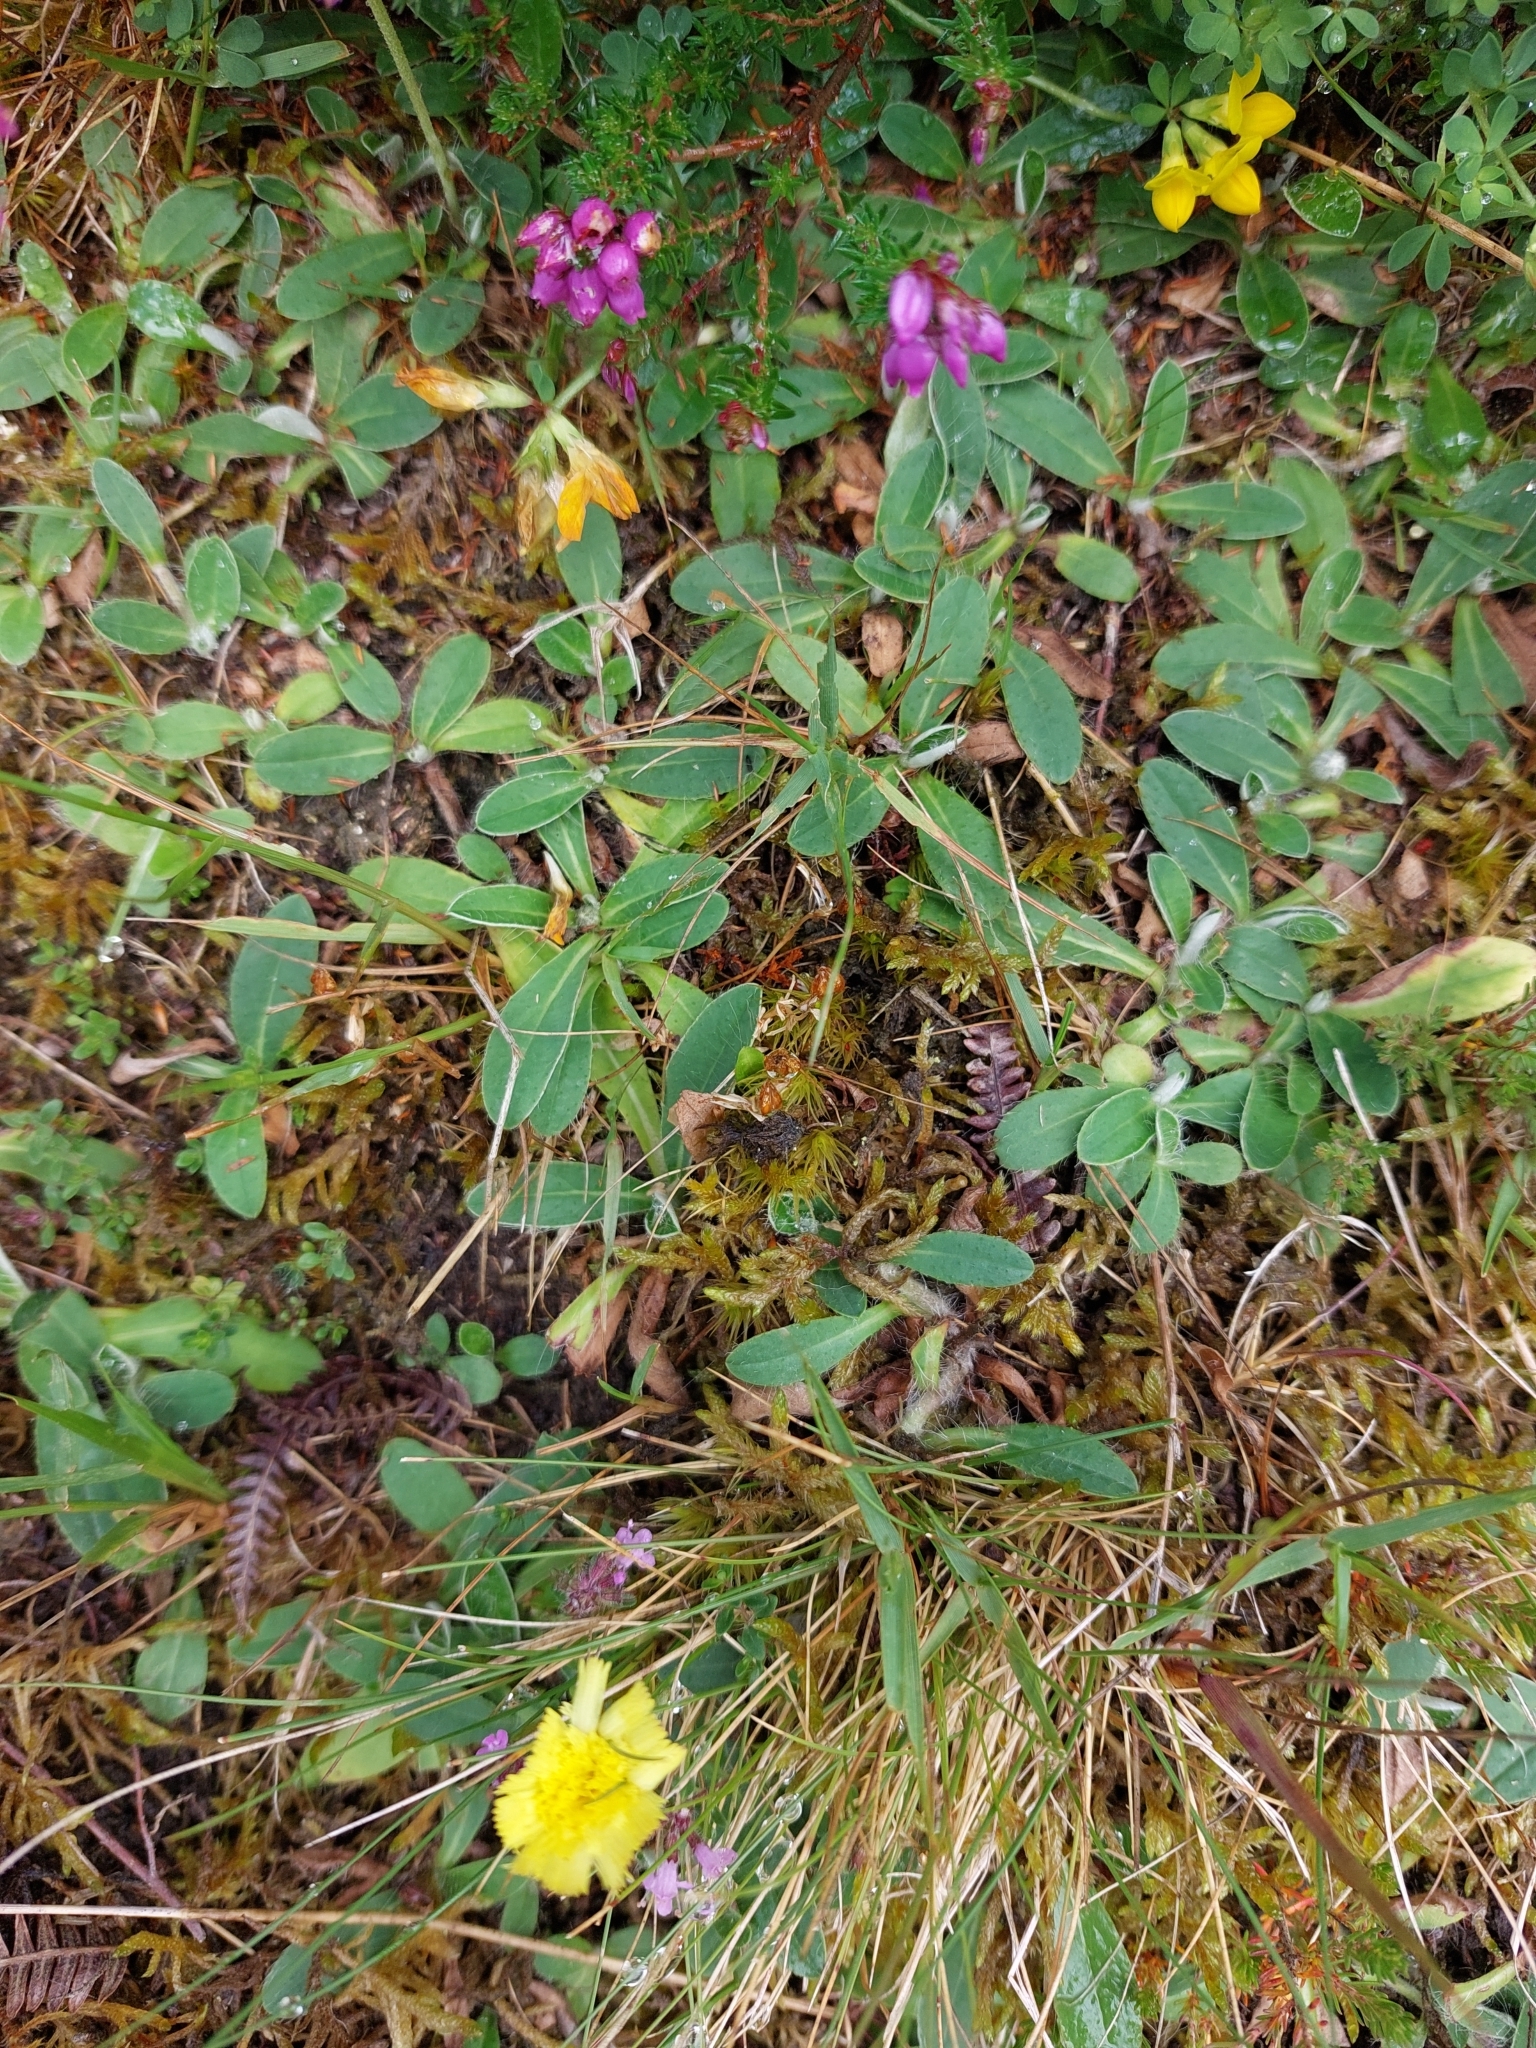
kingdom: Plantae
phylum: Tracheophyta
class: Magnoliopsida
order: Asterales
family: Asteraceae
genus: Pilosella
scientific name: Pilosella officinarum
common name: Mouse-ear hawkweed
